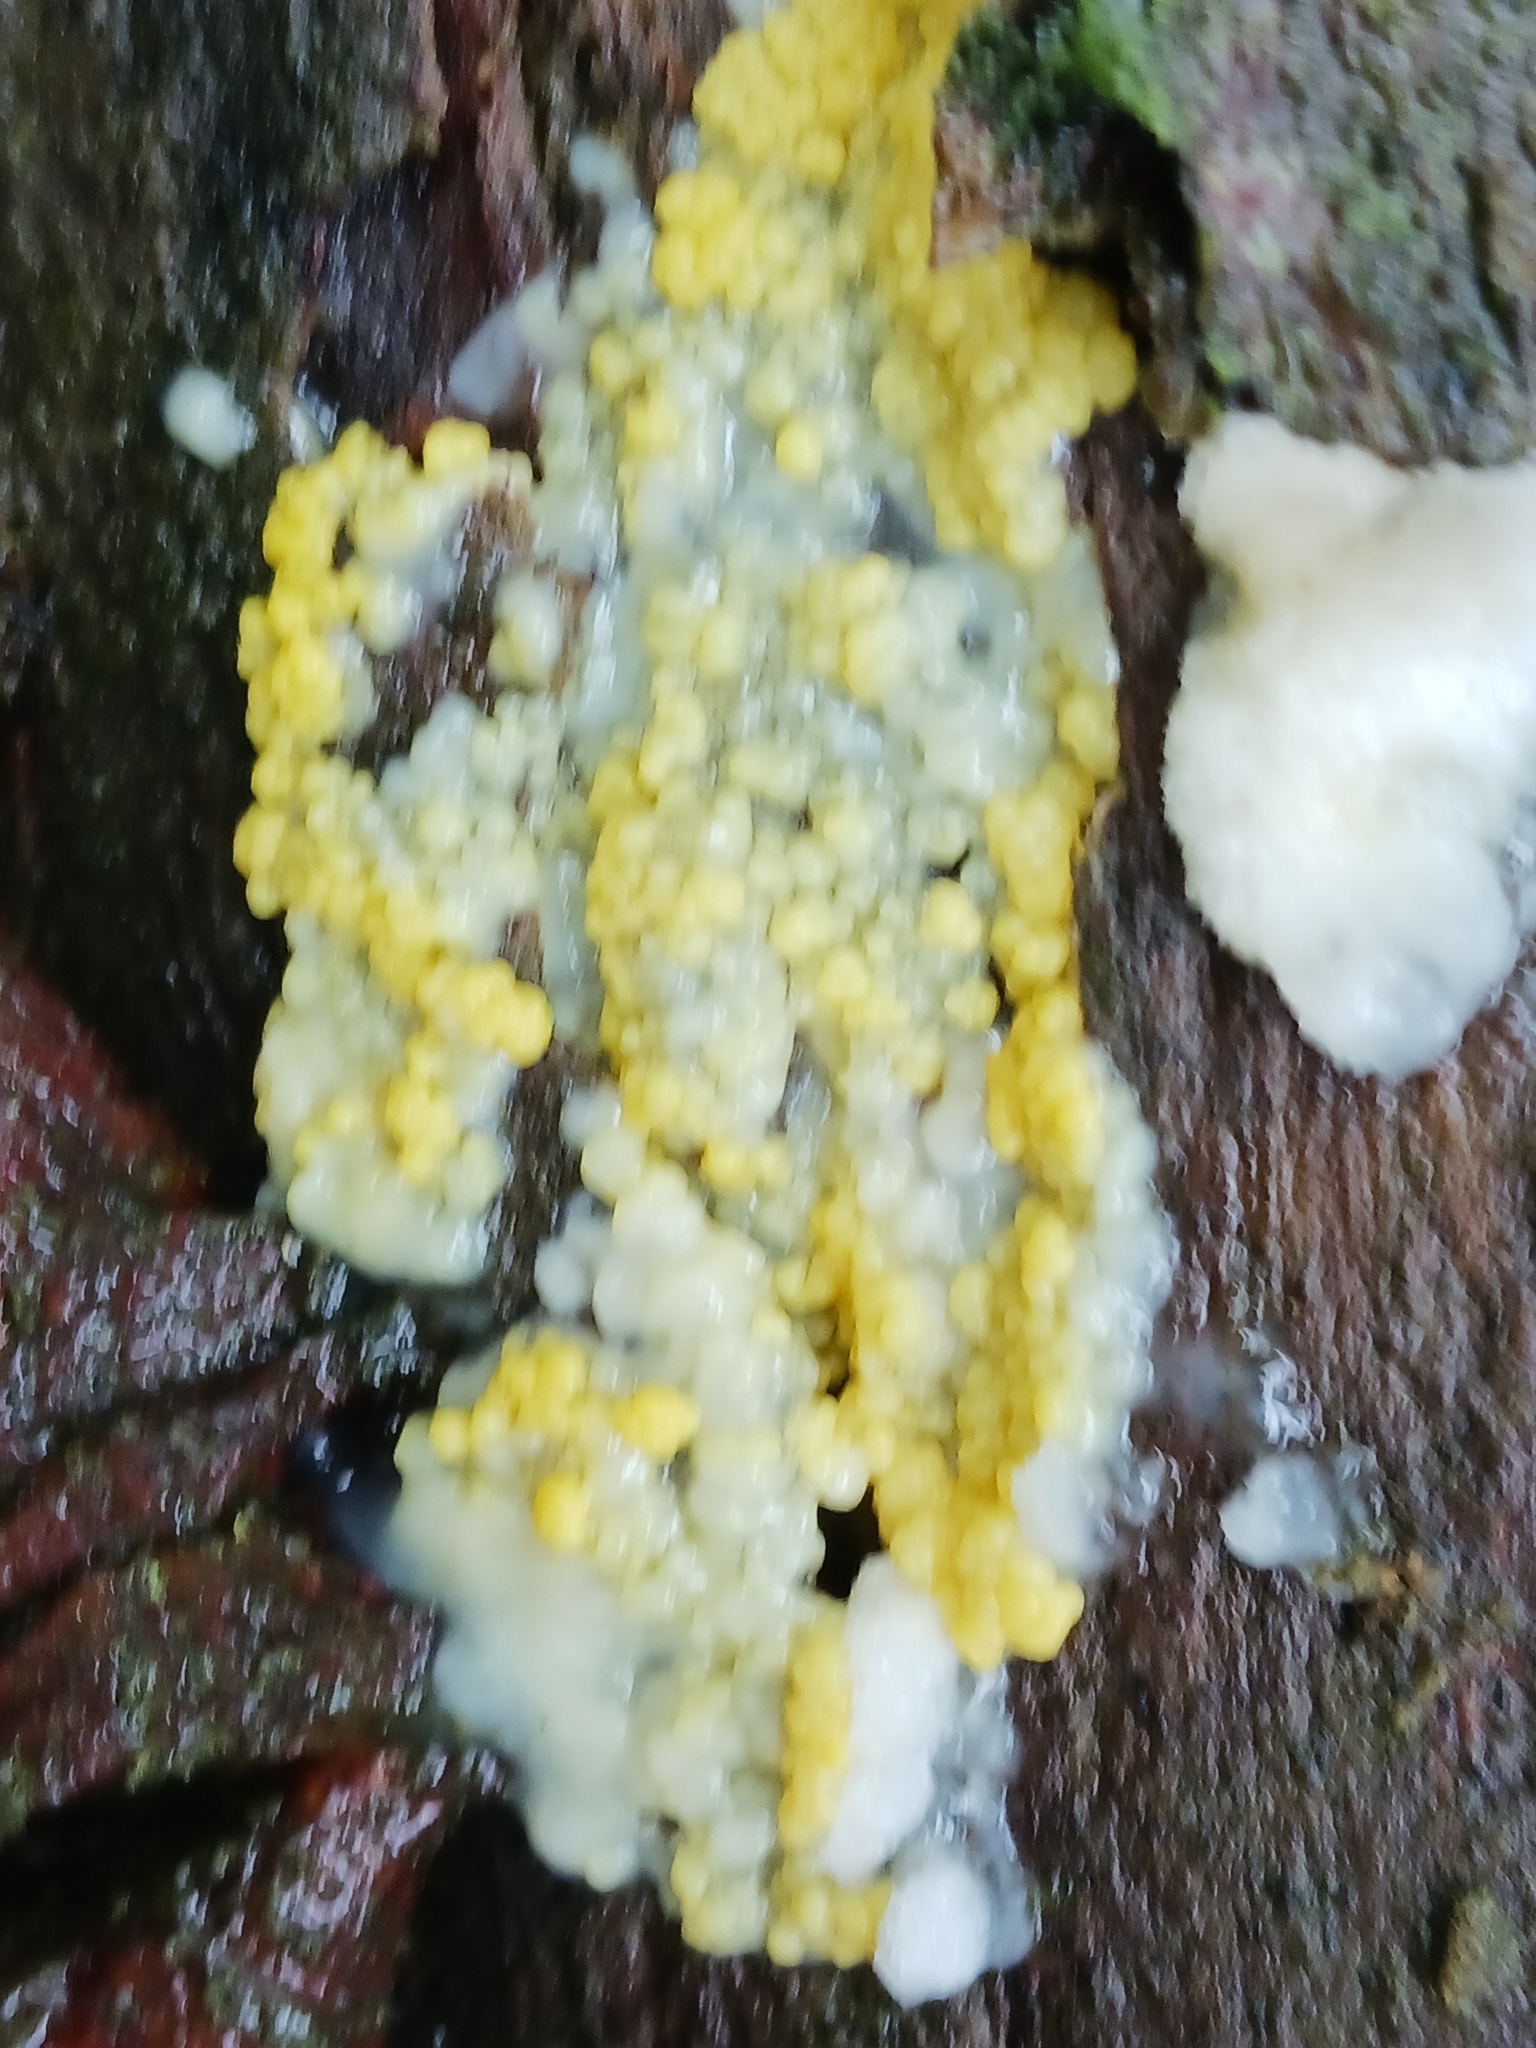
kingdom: Protozoa
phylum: Mycetozoa
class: Protosteliomycetes
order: Ceratiomyxales
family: Ceratiomyxaceae
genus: Ceratiomyxa
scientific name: Ceratiomyxa fruticulosa
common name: Honeycomb coral slime mold
